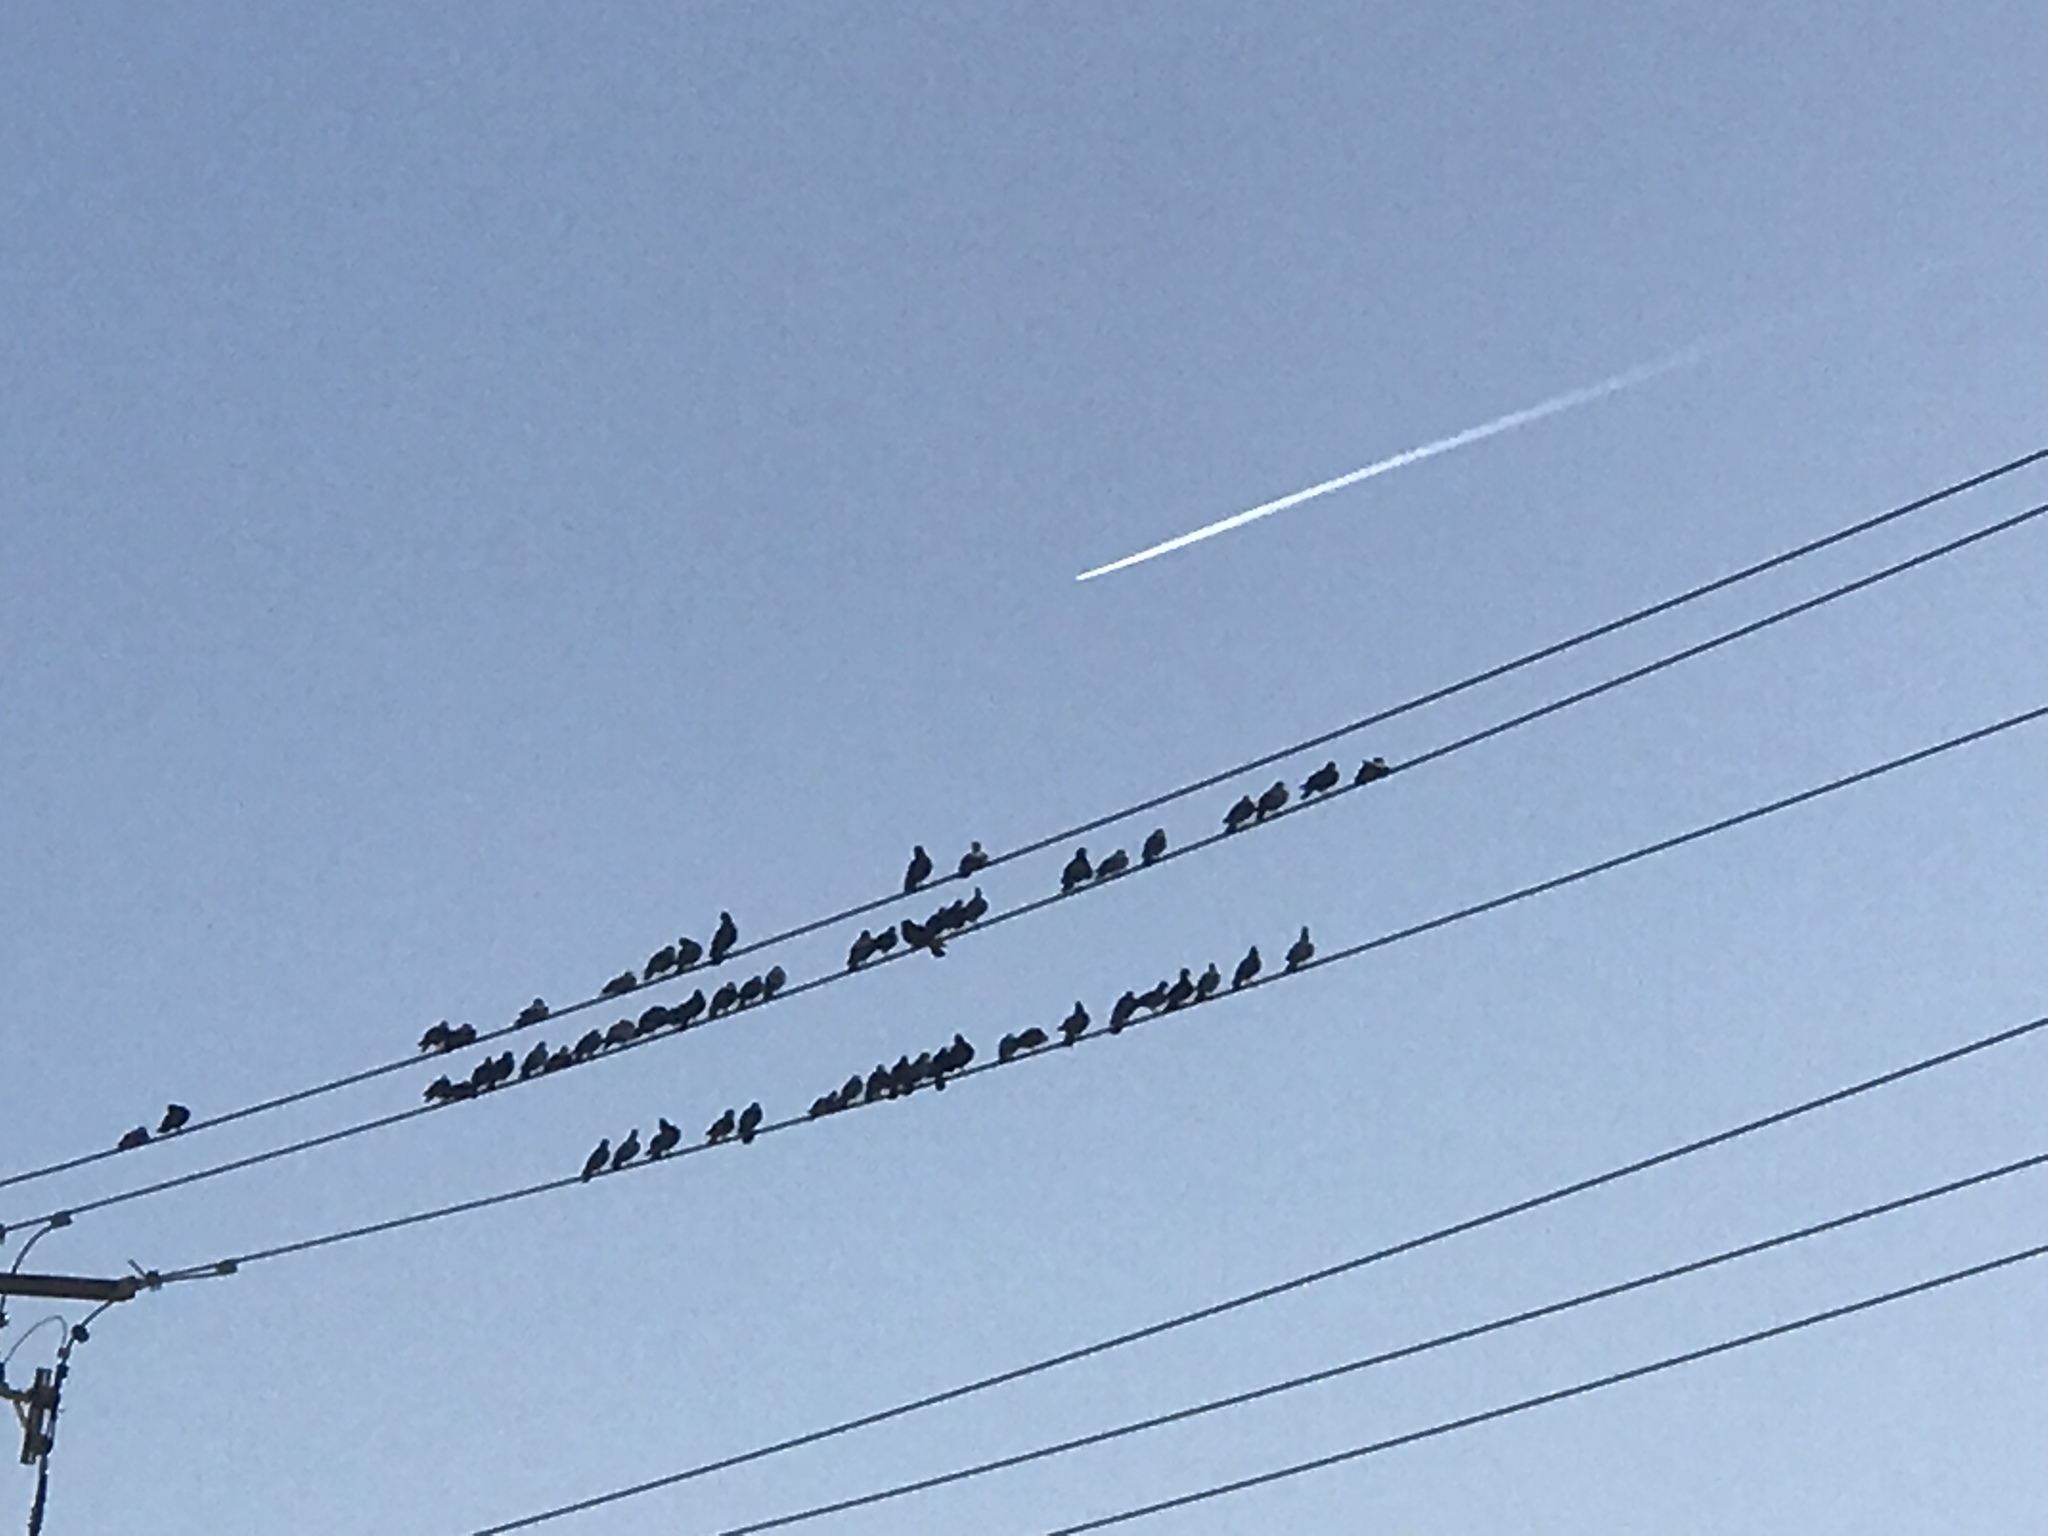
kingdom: Animalia
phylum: Chordata
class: Aves
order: Columbiformes
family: Columbidae
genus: Columba
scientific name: Columba livia
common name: Rock pigeon
